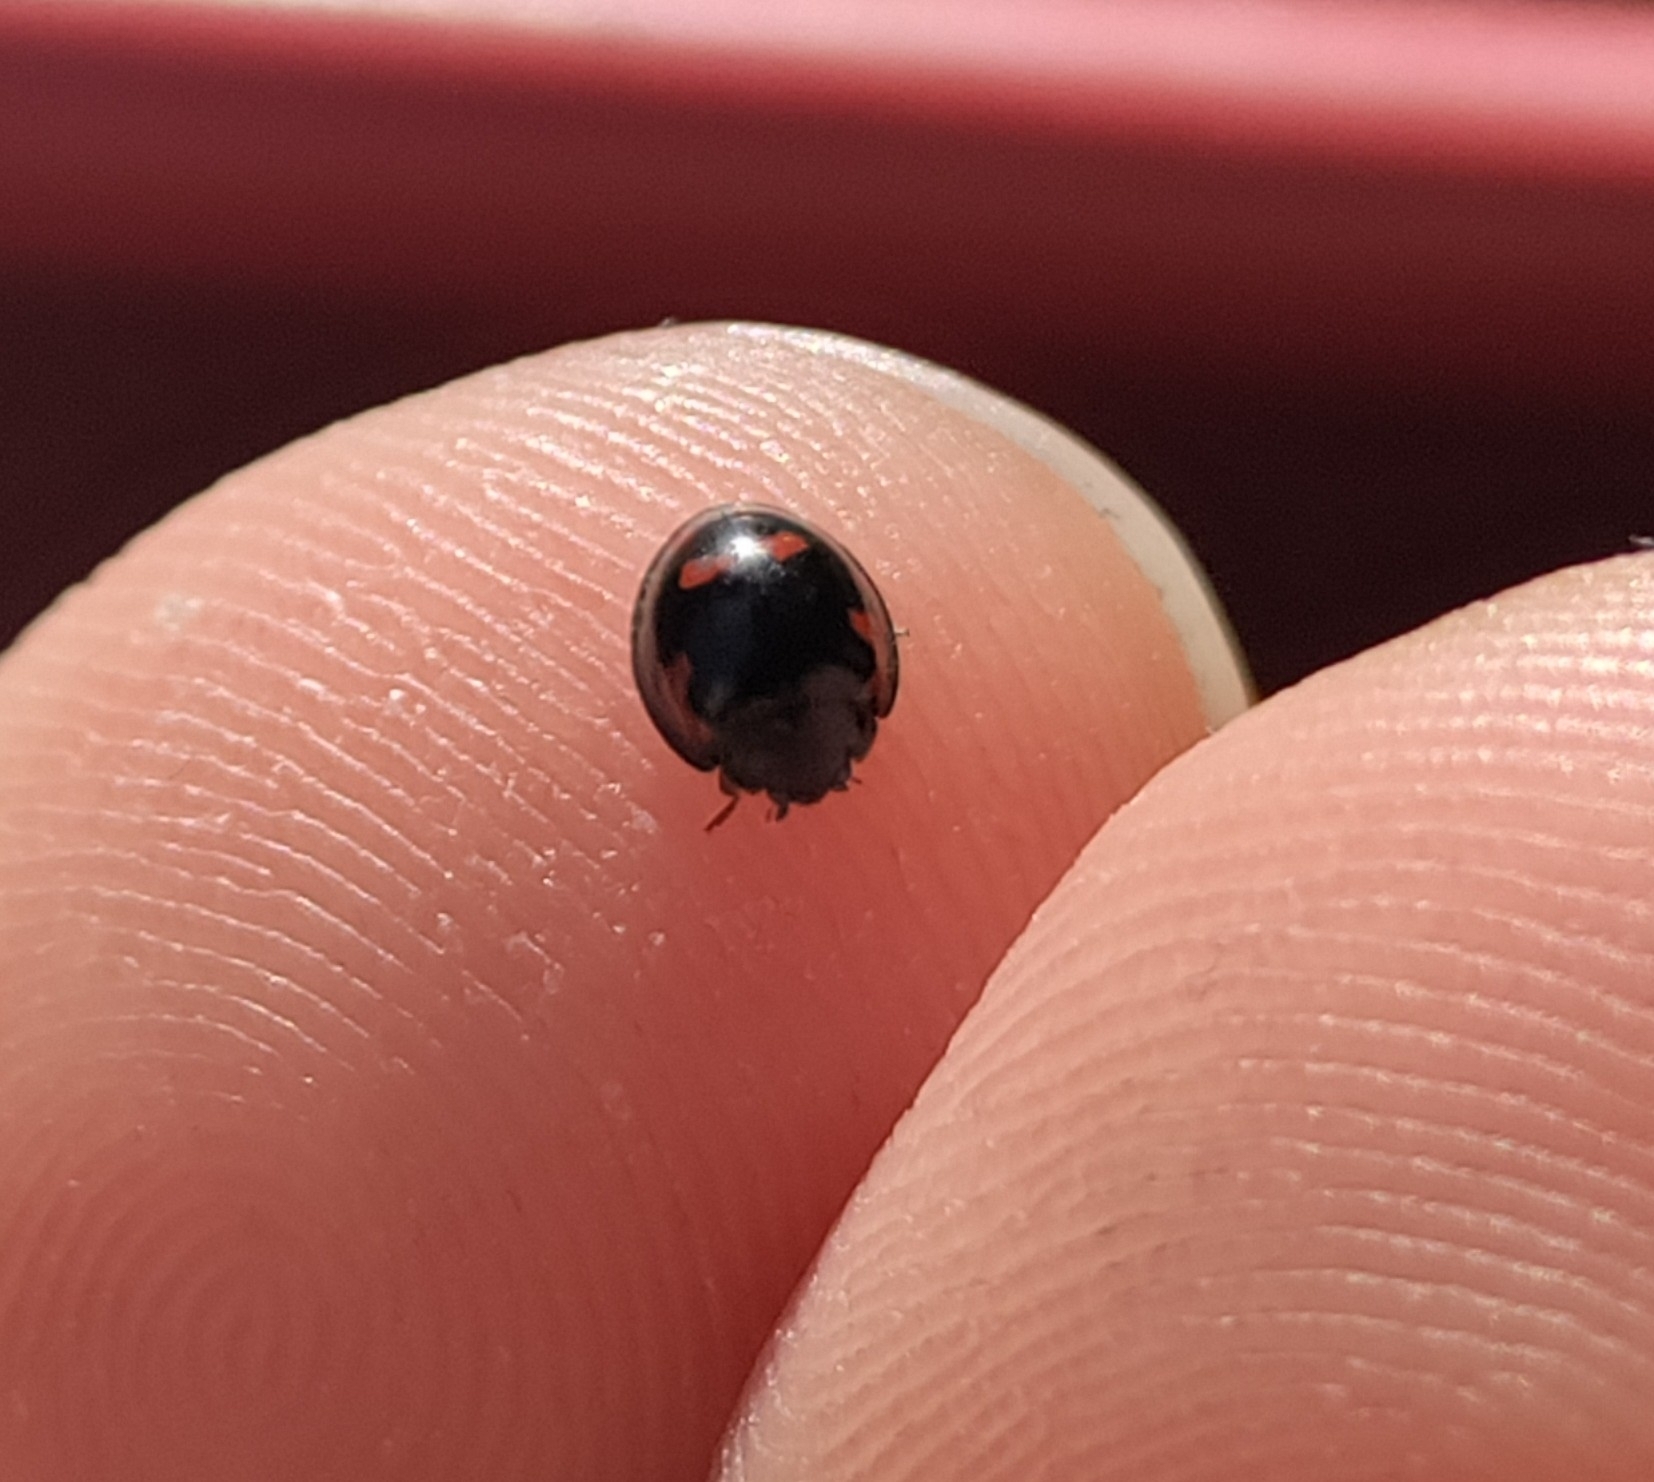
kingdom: Animalia
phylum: Arthropoda
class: Insecta
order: Coleoptera
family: Coccinellidae
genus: Brumus
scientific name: Brumus quadripustulatus
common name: Ladybird beetle
